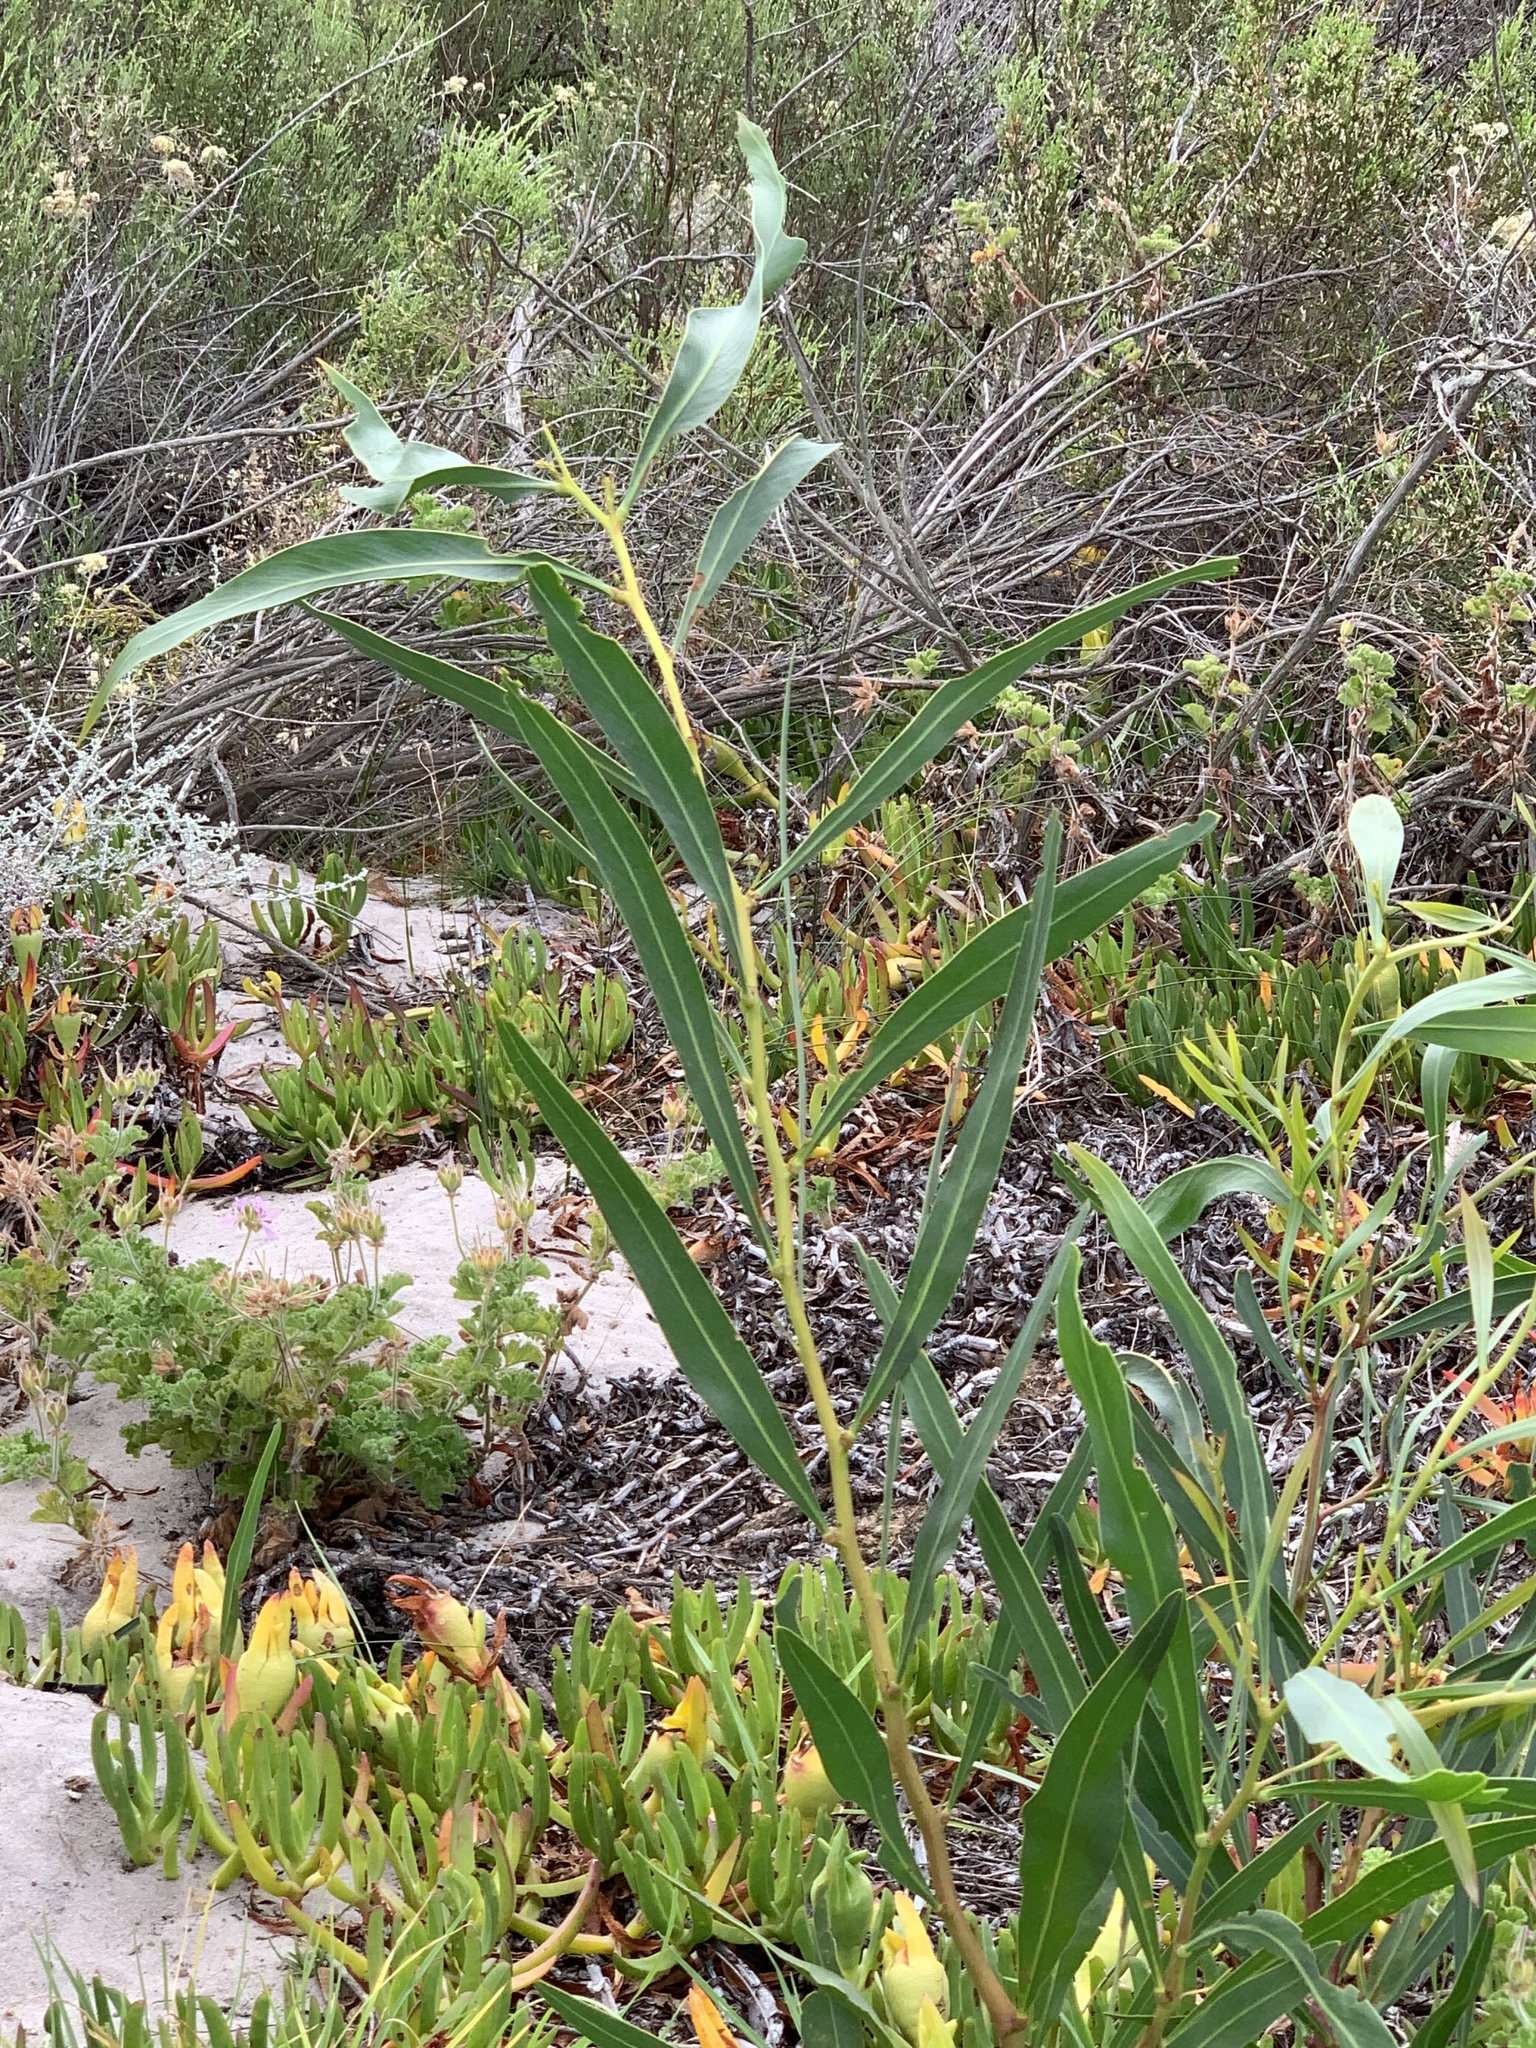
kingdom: Plantae
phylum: Tracheophyta
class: Magnoliopsida
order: Fabales
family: Fabaceae
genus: Acacia
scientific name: Acacia saligna
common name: Orange wattle
